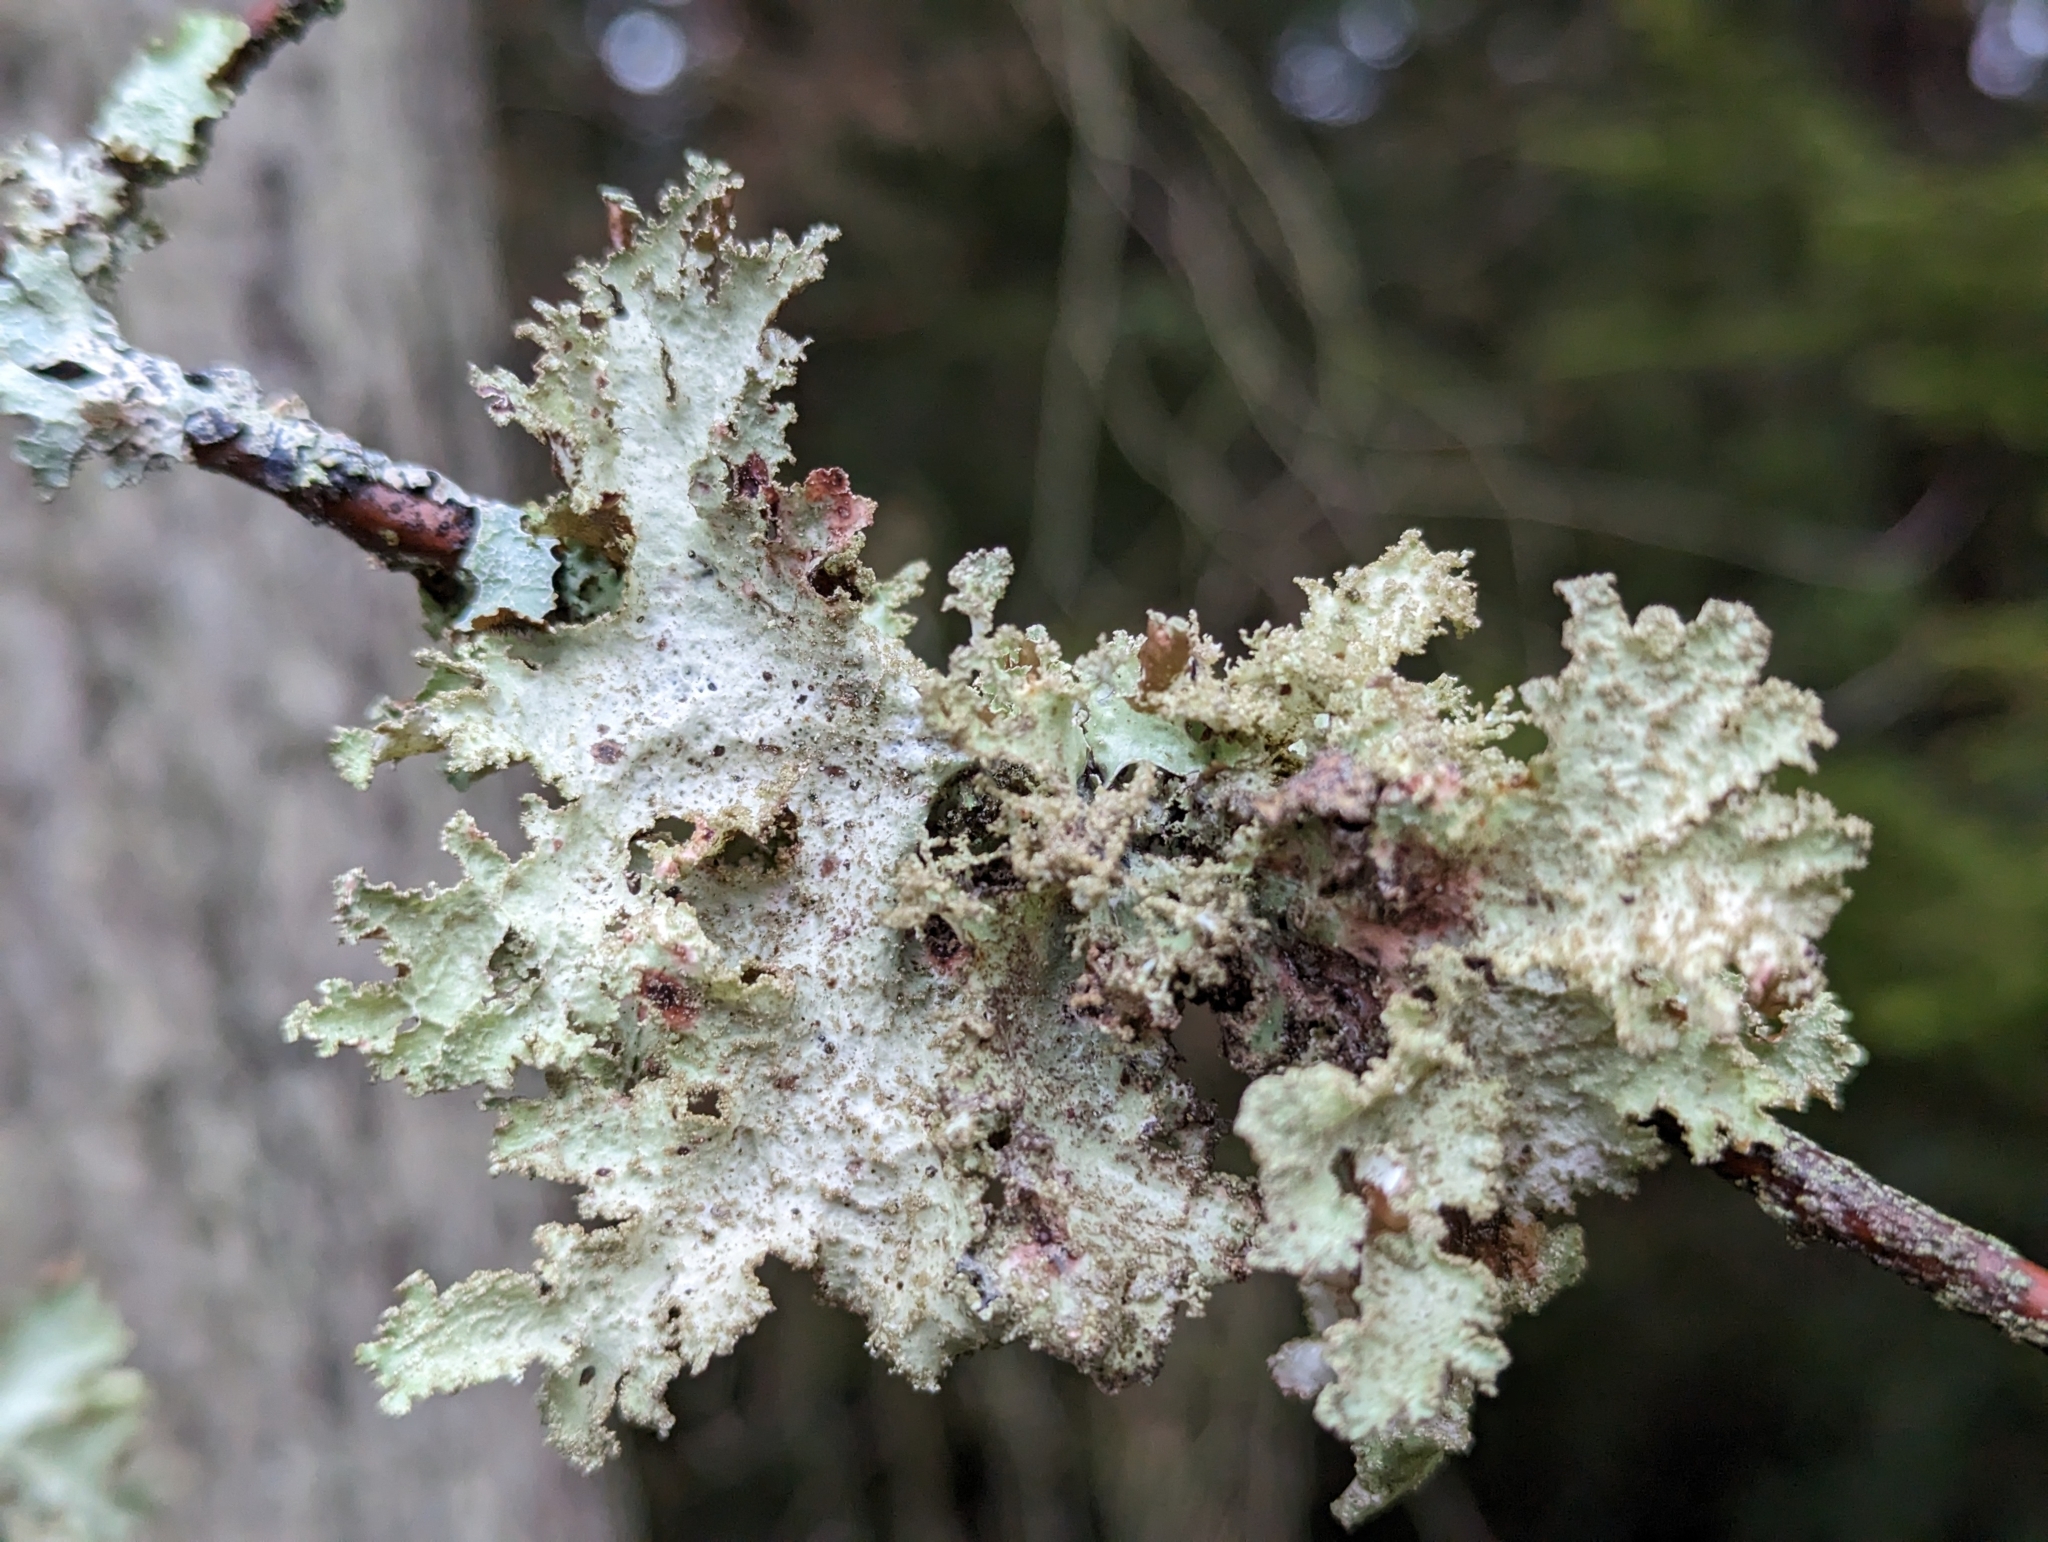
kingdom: Fungi
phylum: Ascomycota
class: Lecanoromycetes
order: Lecanorales
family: Parmeliaceae
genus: Platismatia
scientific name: Platismatia glauca
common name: Varied rag lichen
